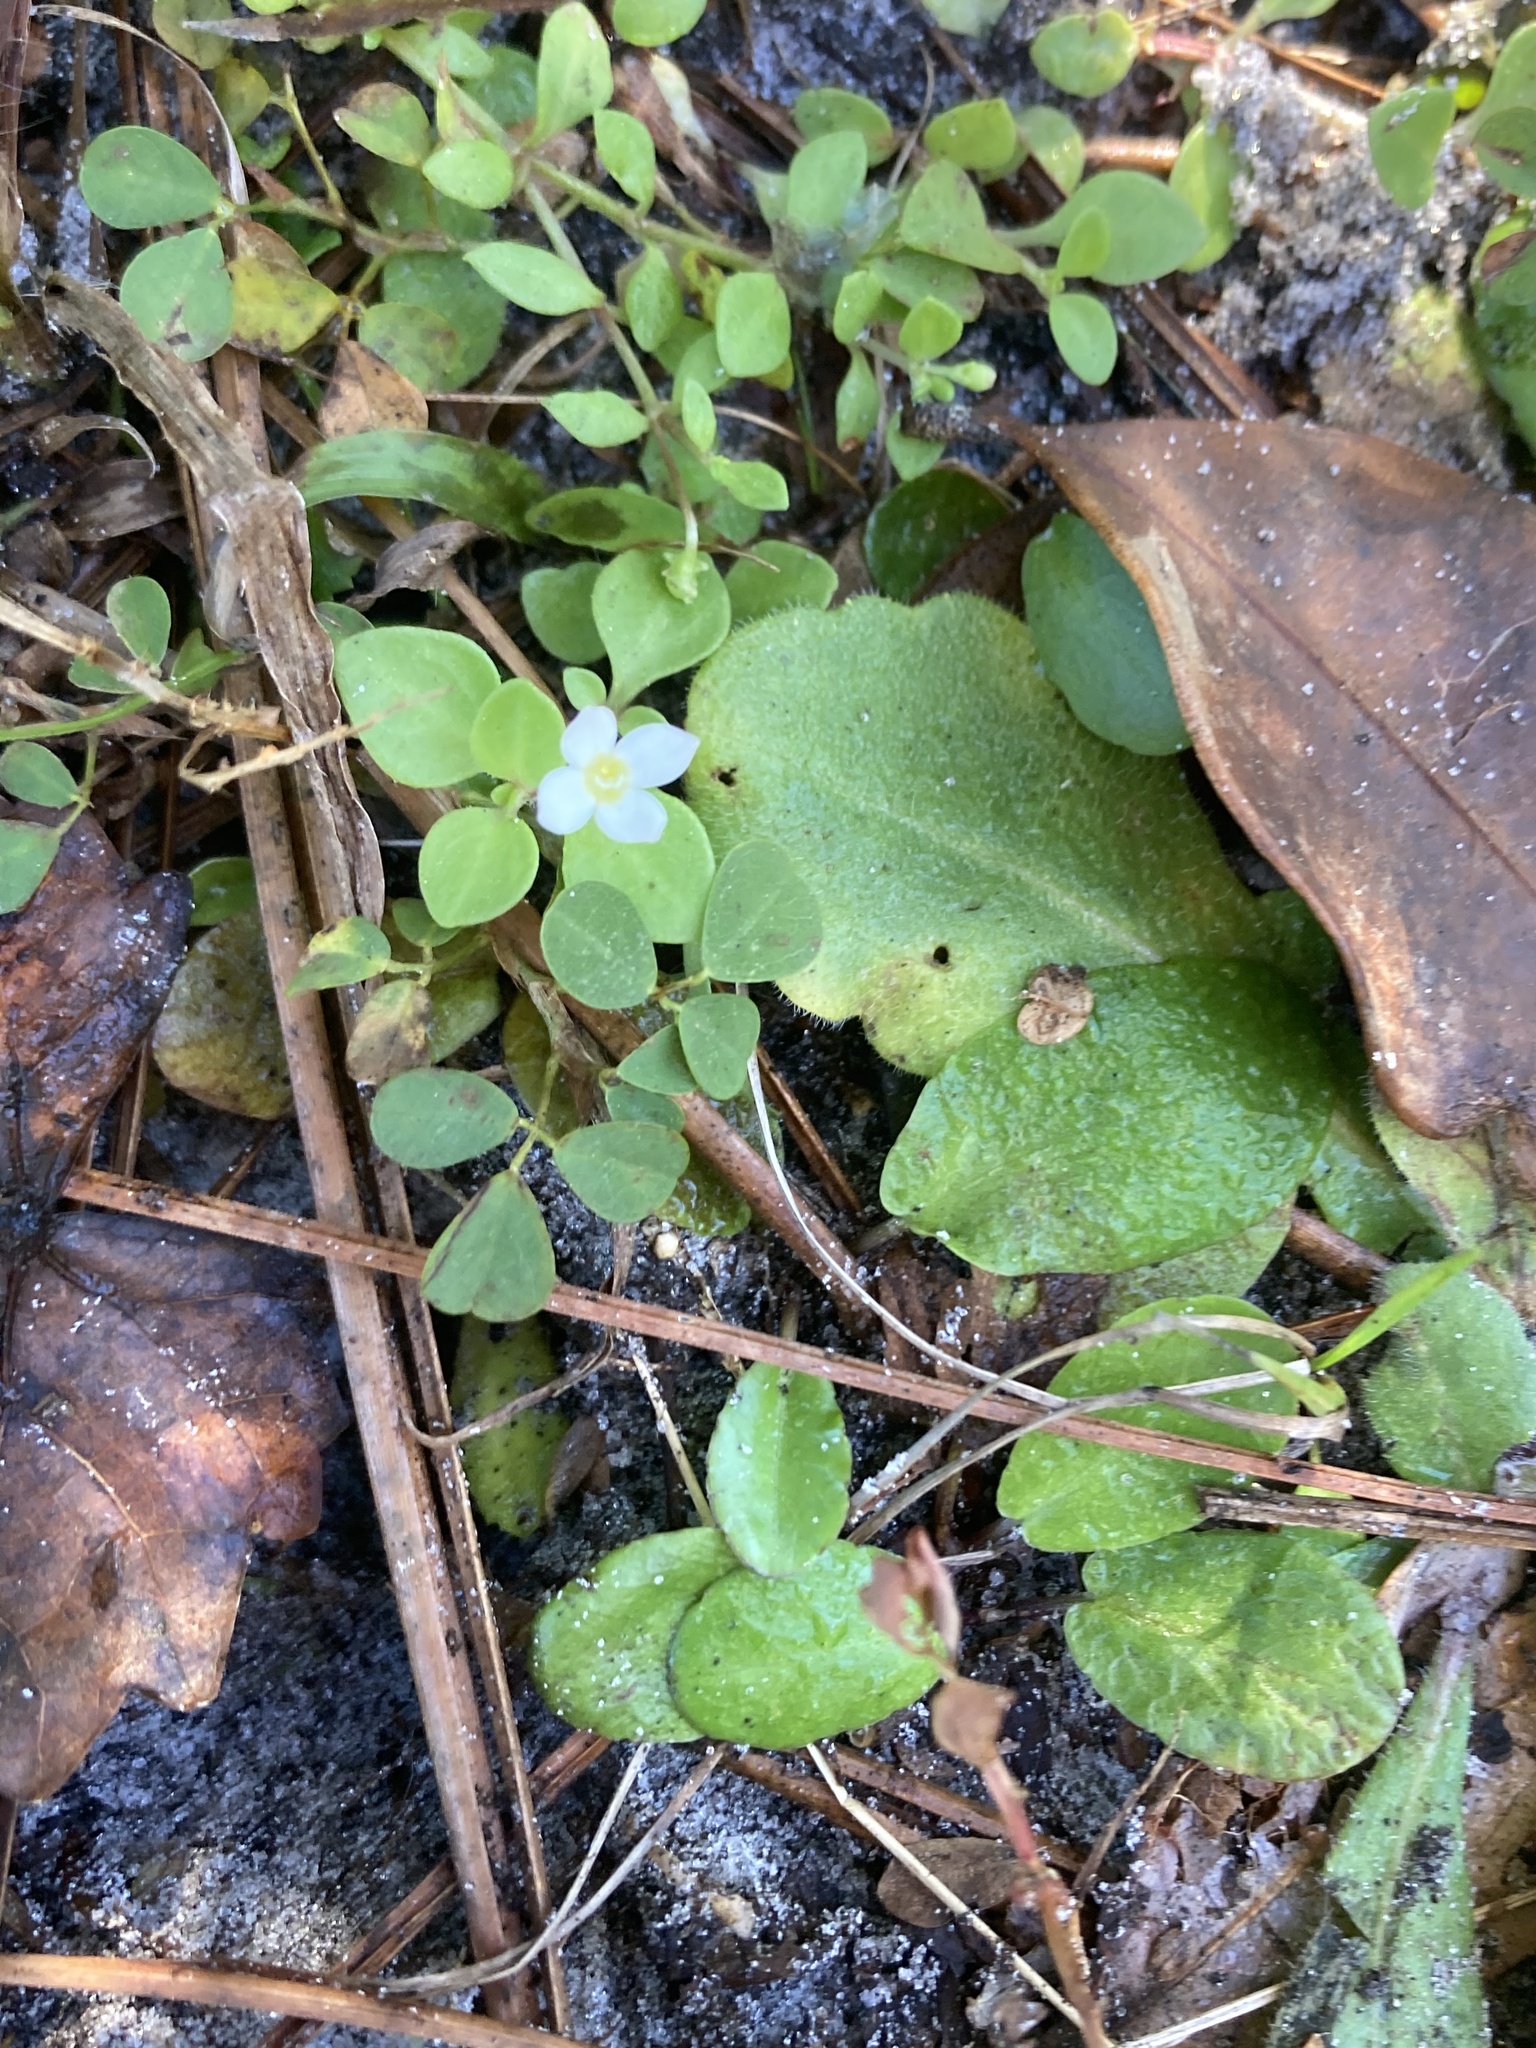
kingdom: Plantae
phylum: Tracheophyta
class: Magnoliopsida
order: Gentianales
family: Rubiaceae
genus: Houstonia
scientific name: Houstonia procumbens
